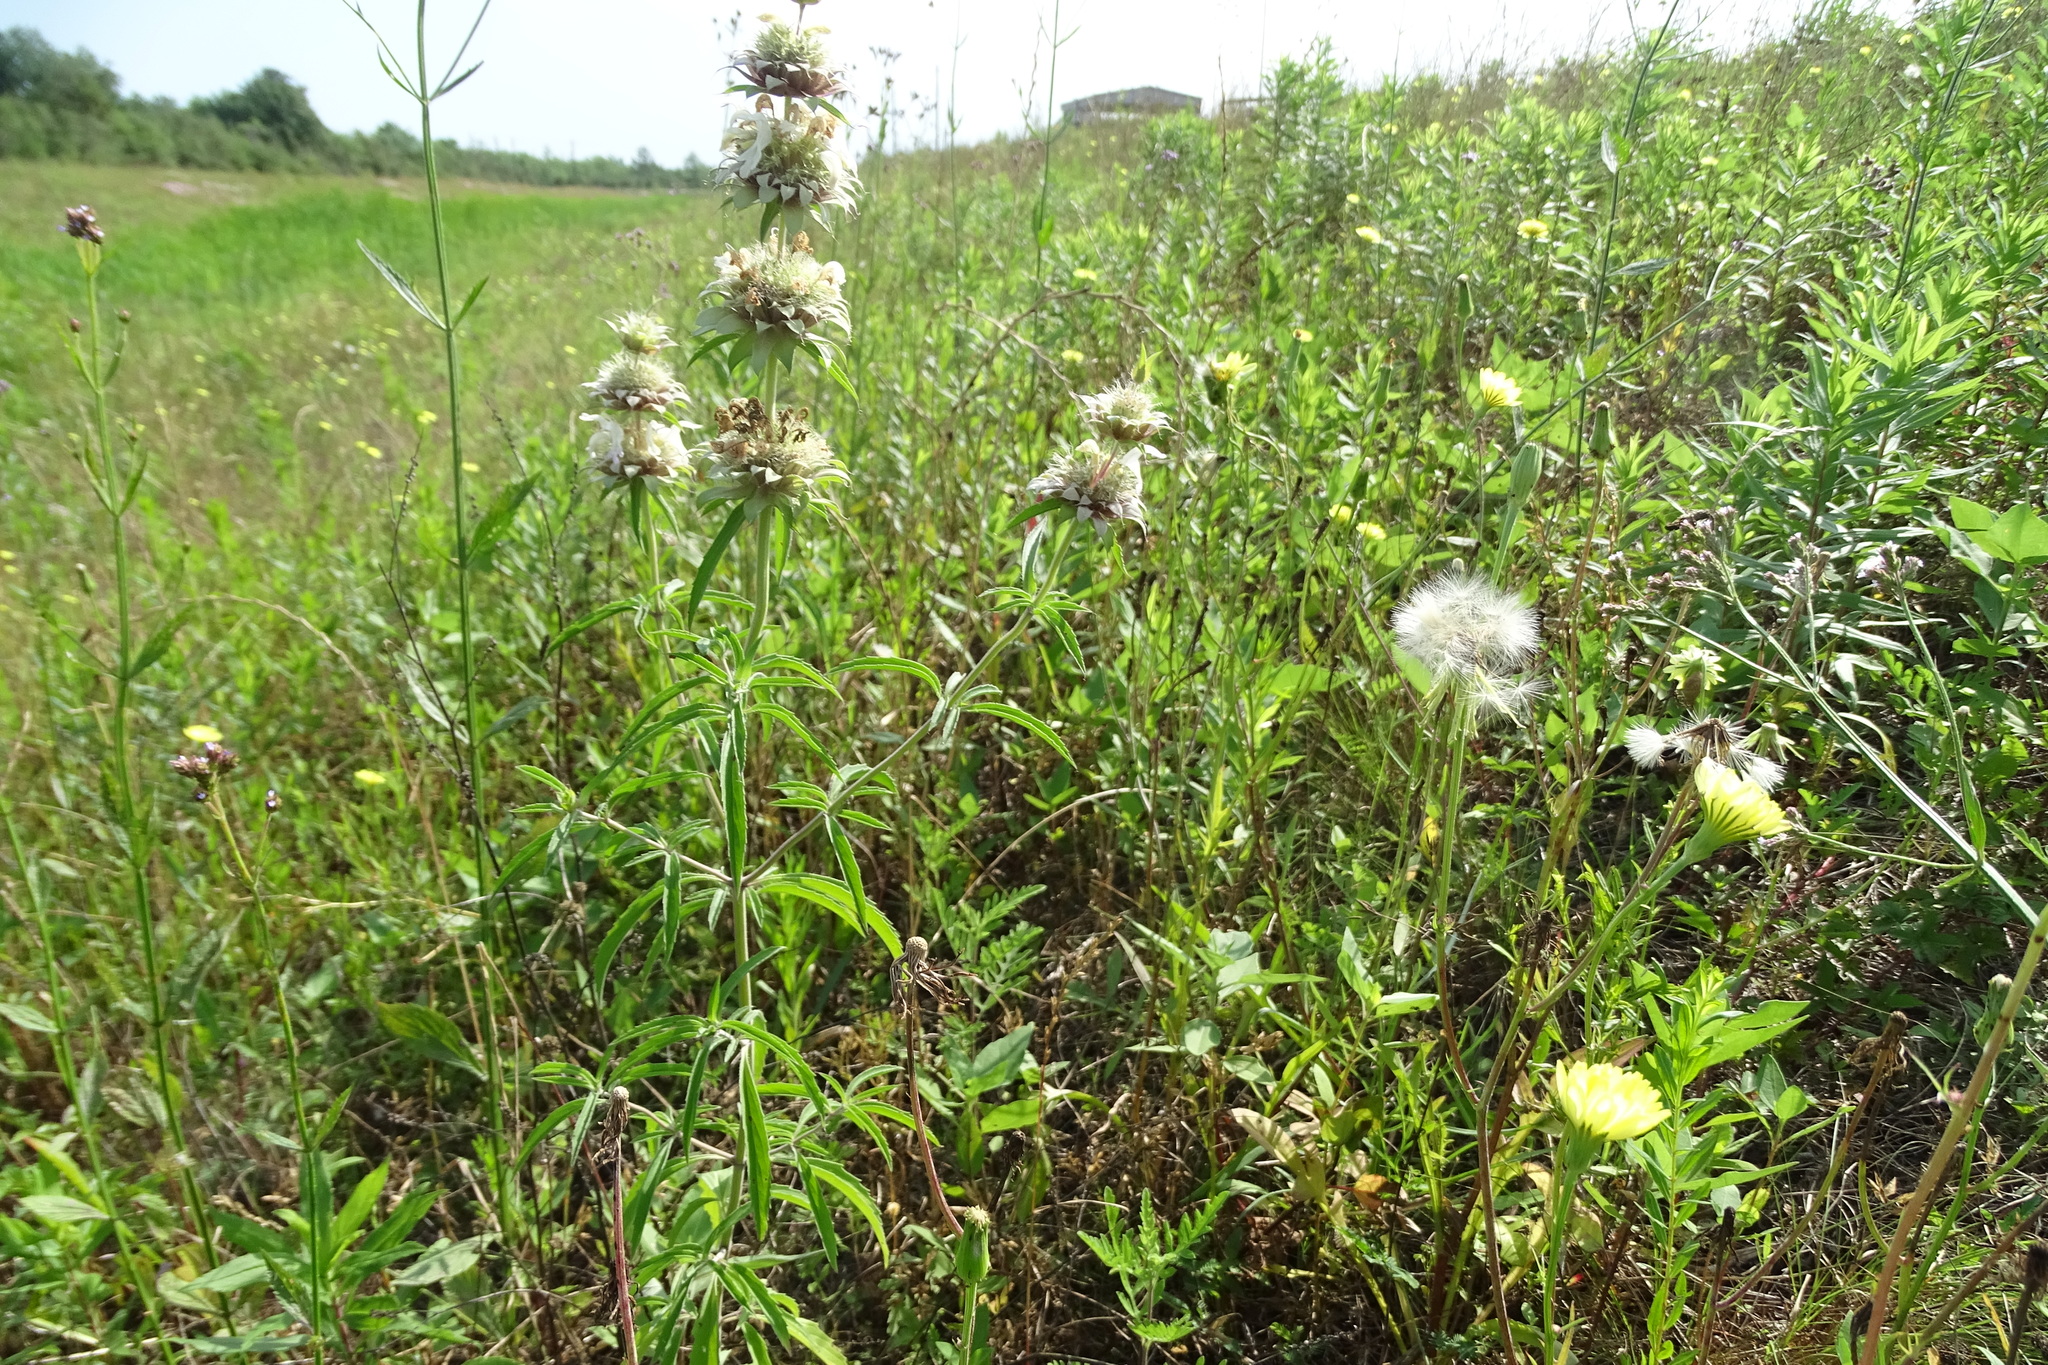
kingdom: Plantae
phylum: Tracheophyta
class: Magnoliopsida
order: Lamiales
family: Lamiaceae
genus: Monarda
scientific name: Monarda citriodora
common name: Lemon beebalm
